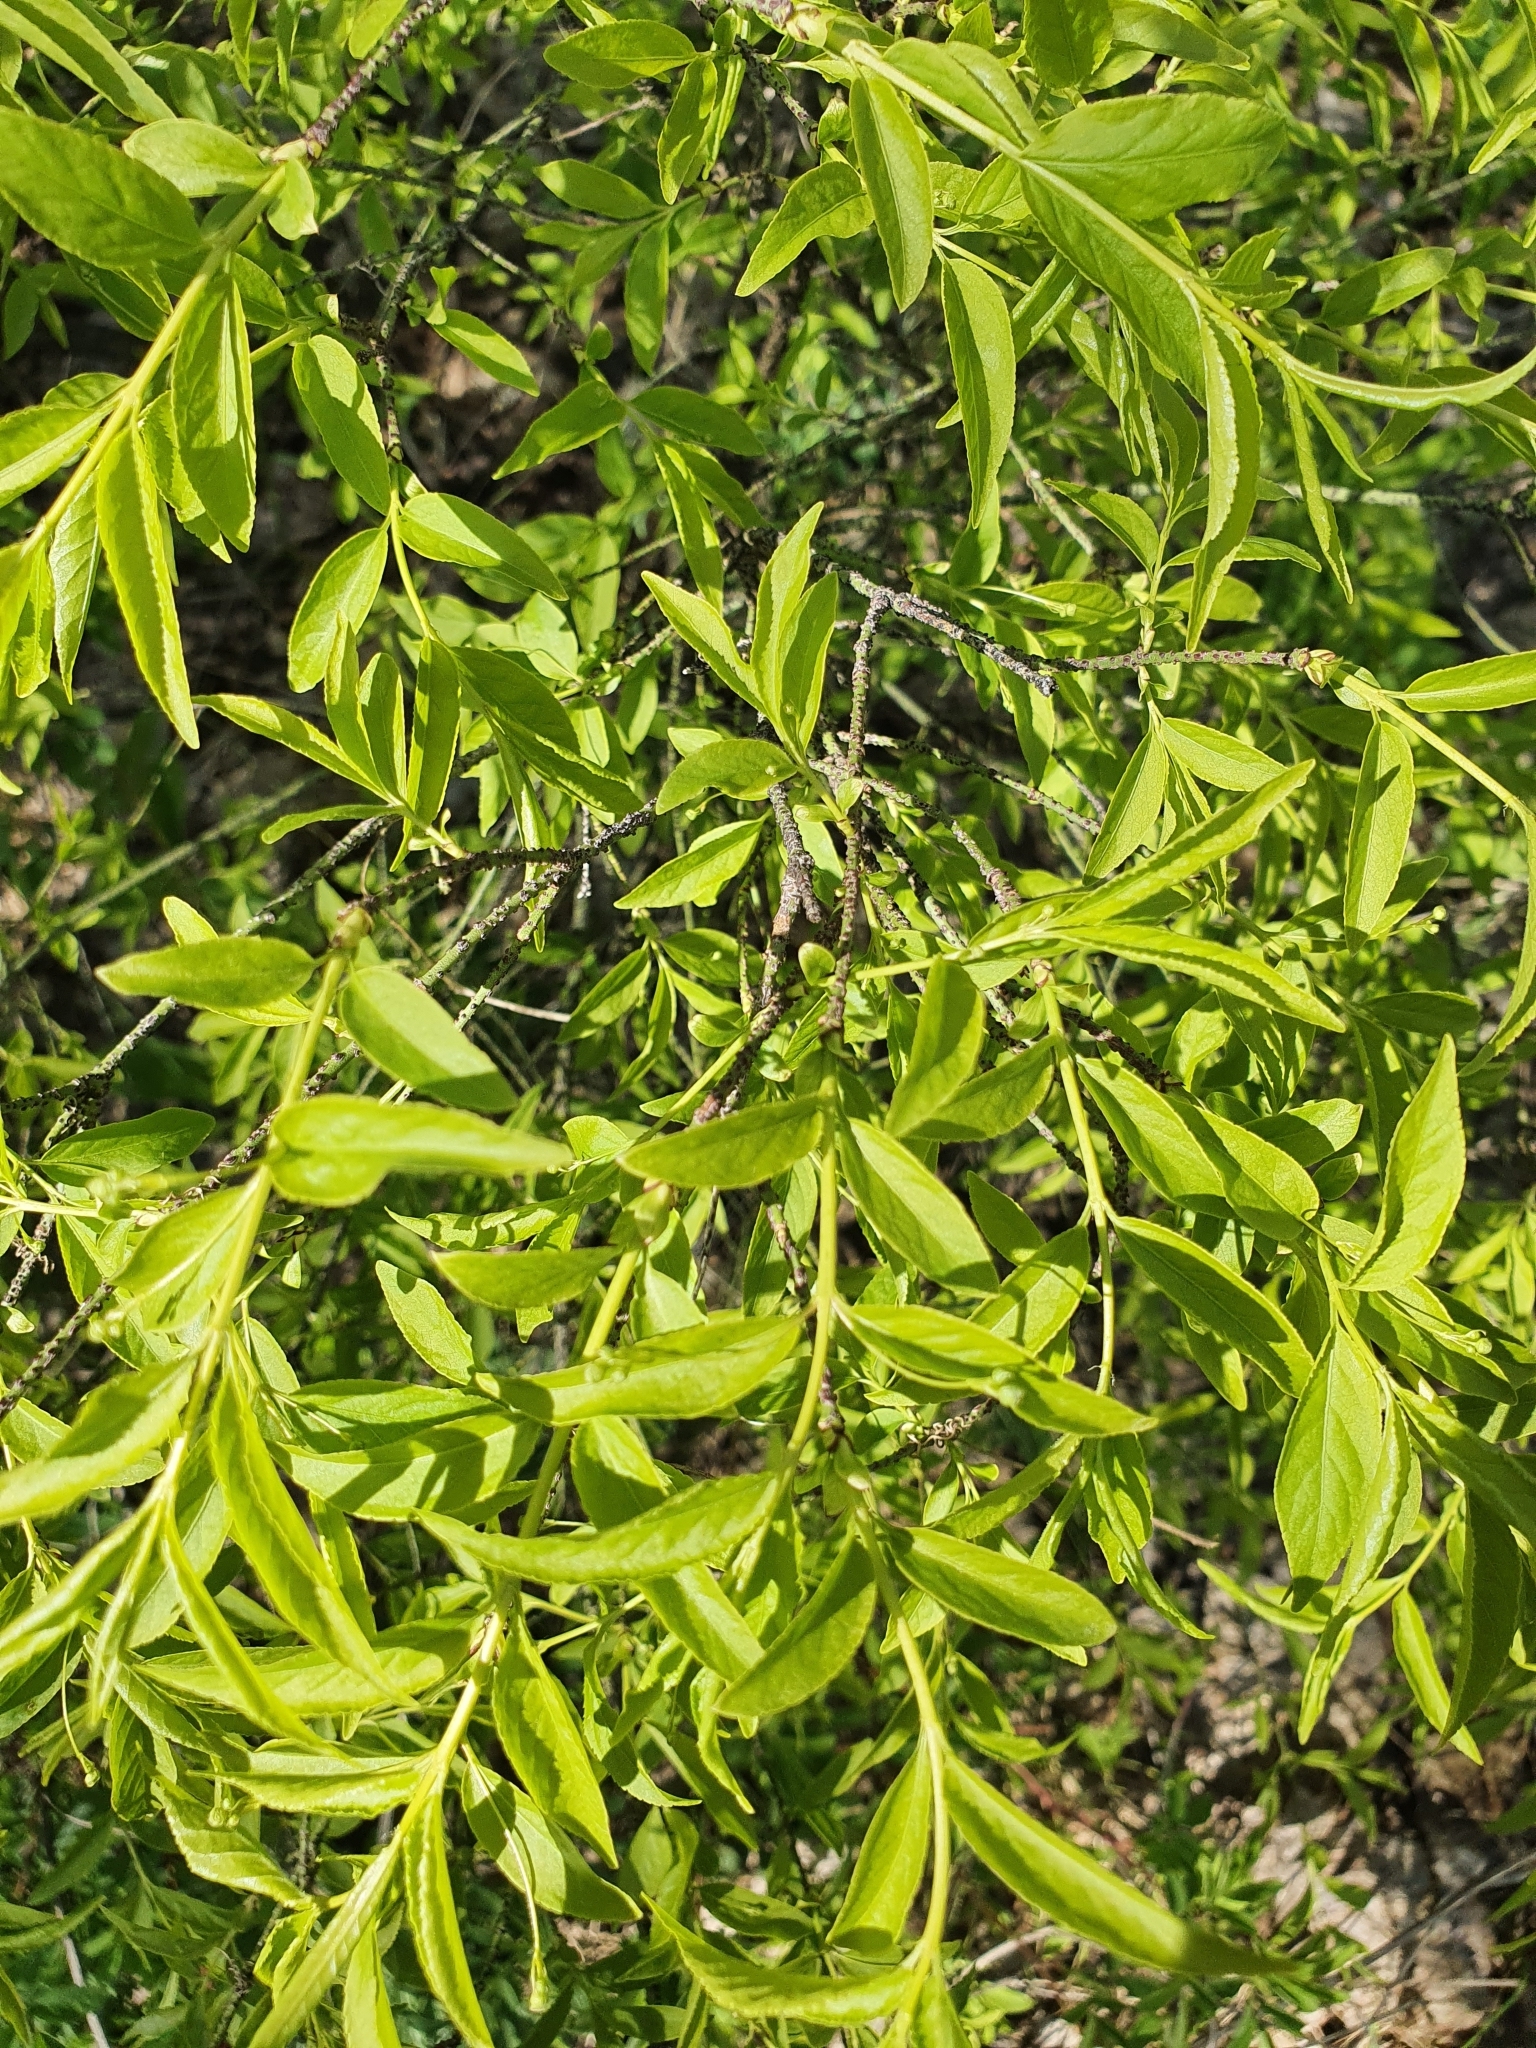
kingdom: Plantae
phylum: Tracheophyta
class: Magnoliopsida
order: Celastrales
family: Celastraceae
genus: Euonymus
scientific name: Euonymus verrucosus
